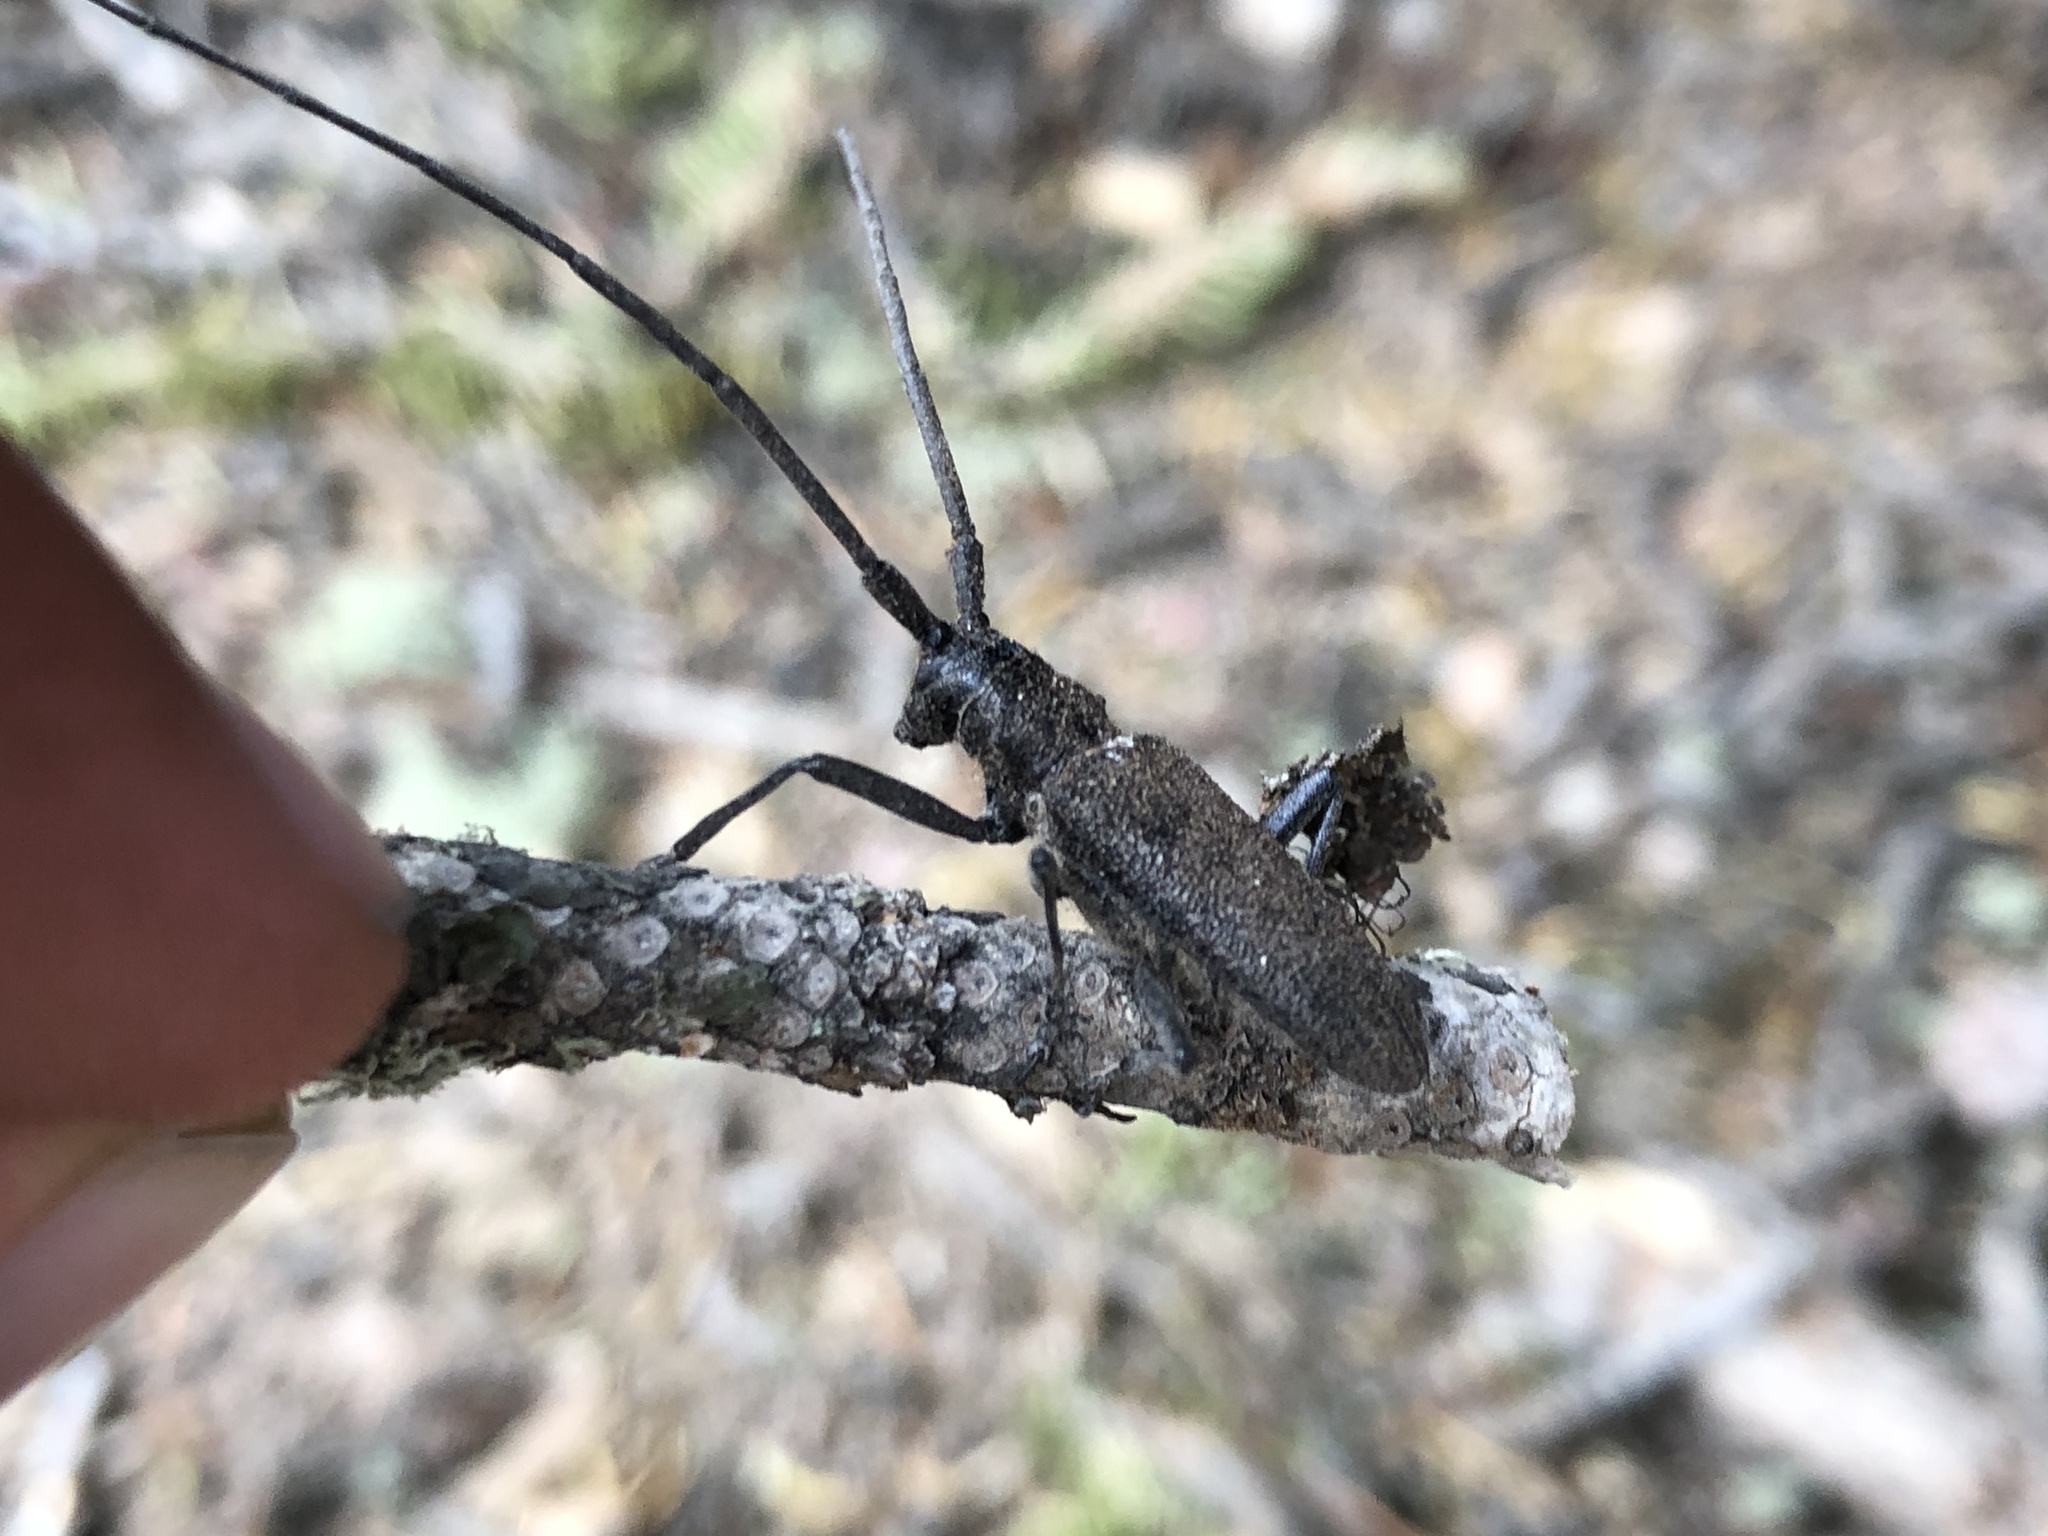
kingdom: Animalia
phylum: Arthropoda
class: Insecta
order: Coleoptera
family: Cerambycidae
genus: Monochamus
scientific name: Monochamus scutellatus
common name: White-spotted sawyer beetle
